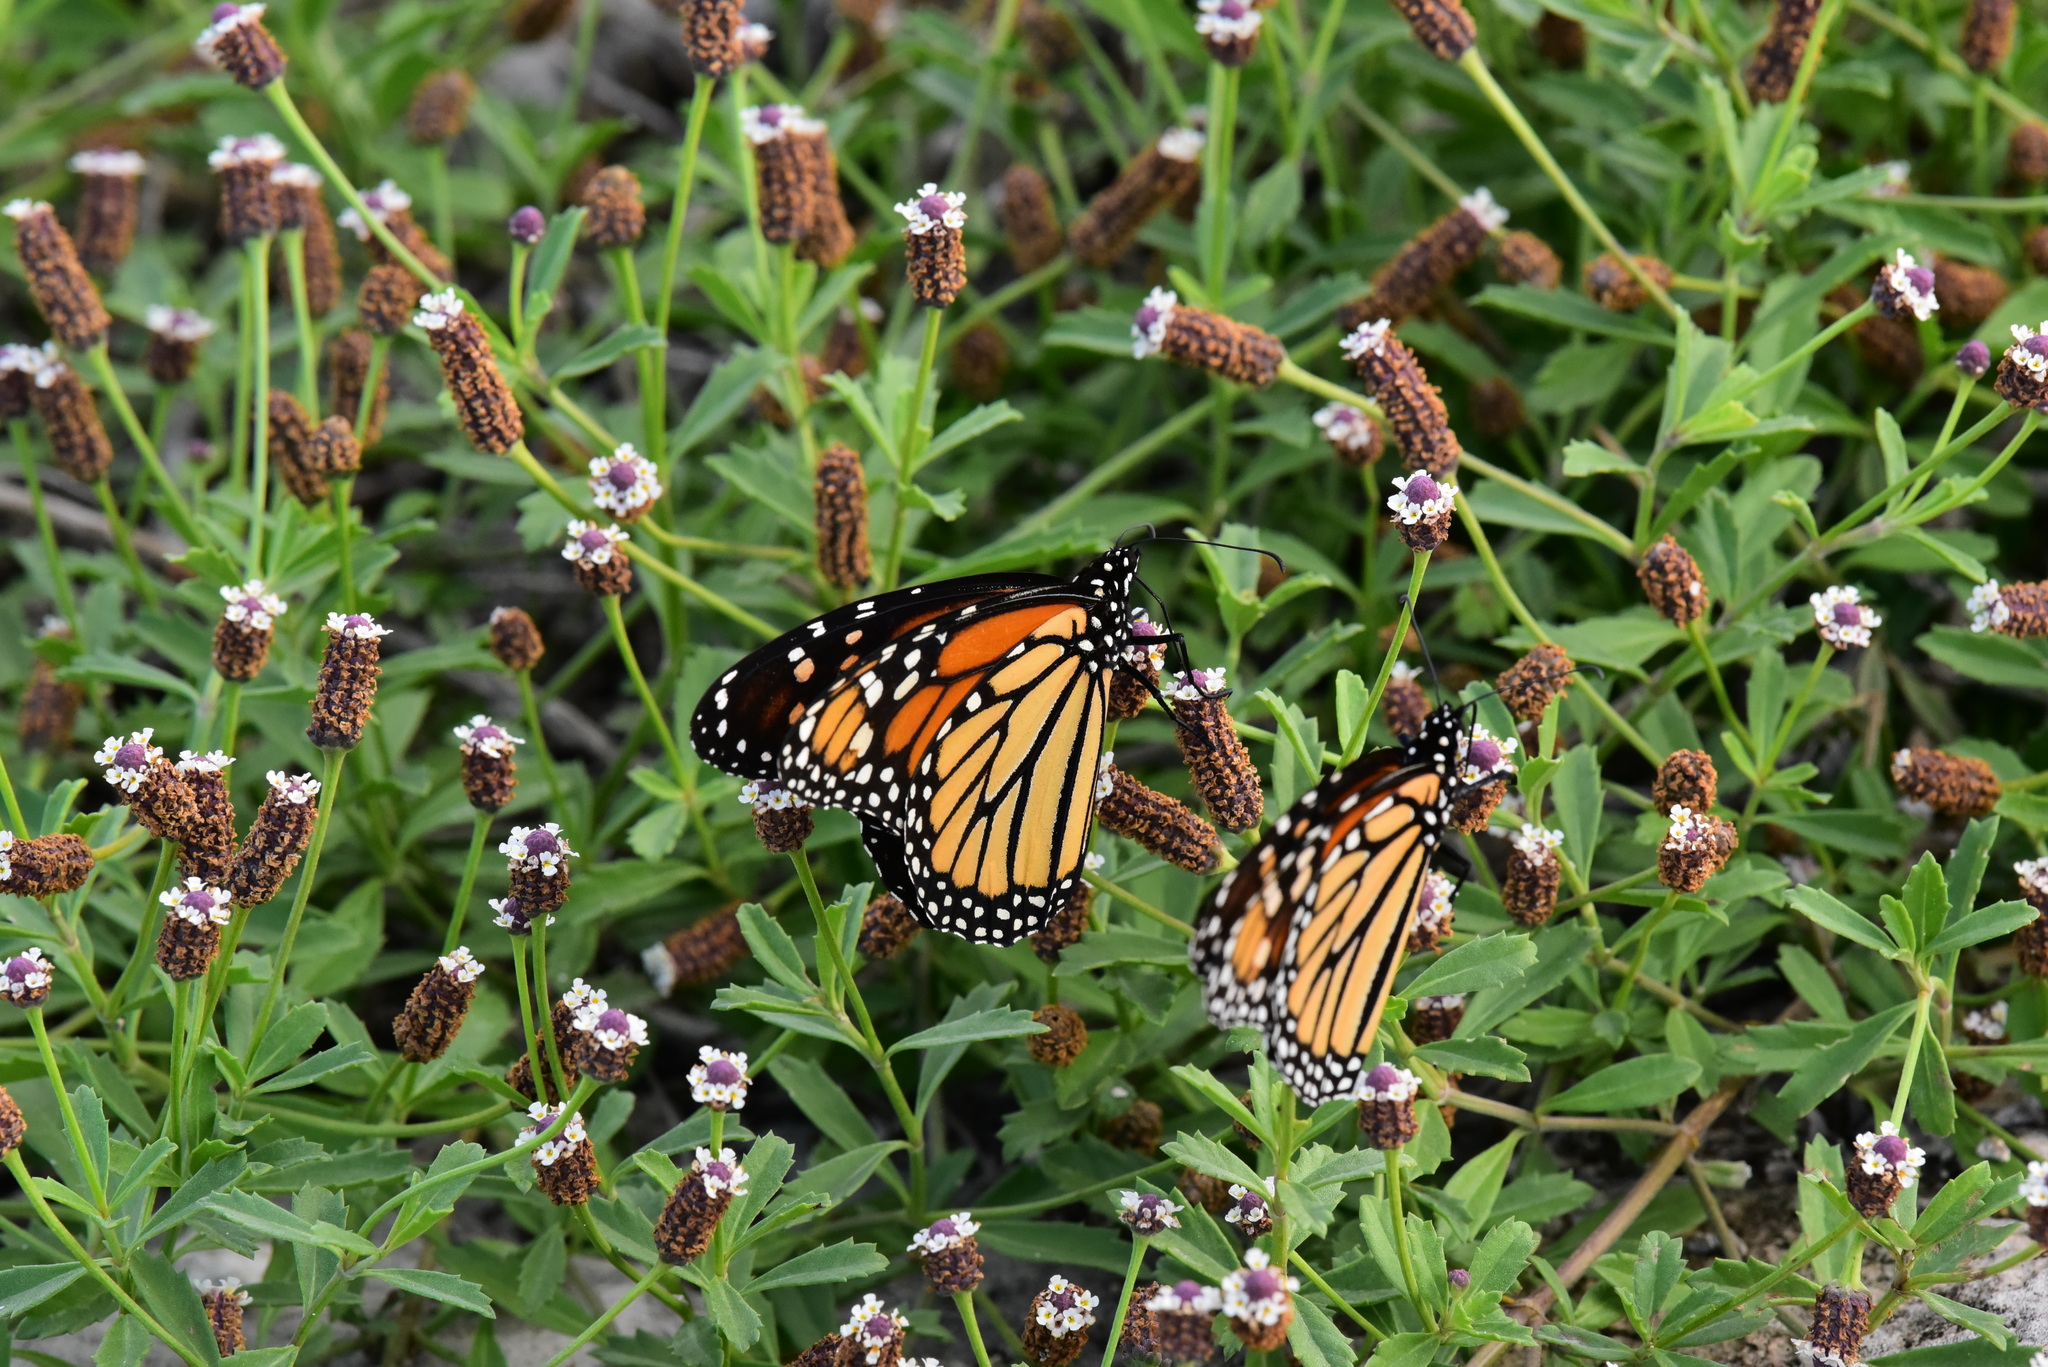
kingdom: Animalia
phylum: Arthropoda
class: Insecta
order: Lepidoptera
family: Nymphalidae
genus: Danaus
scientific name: Danaus plexippus
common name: Monarch
